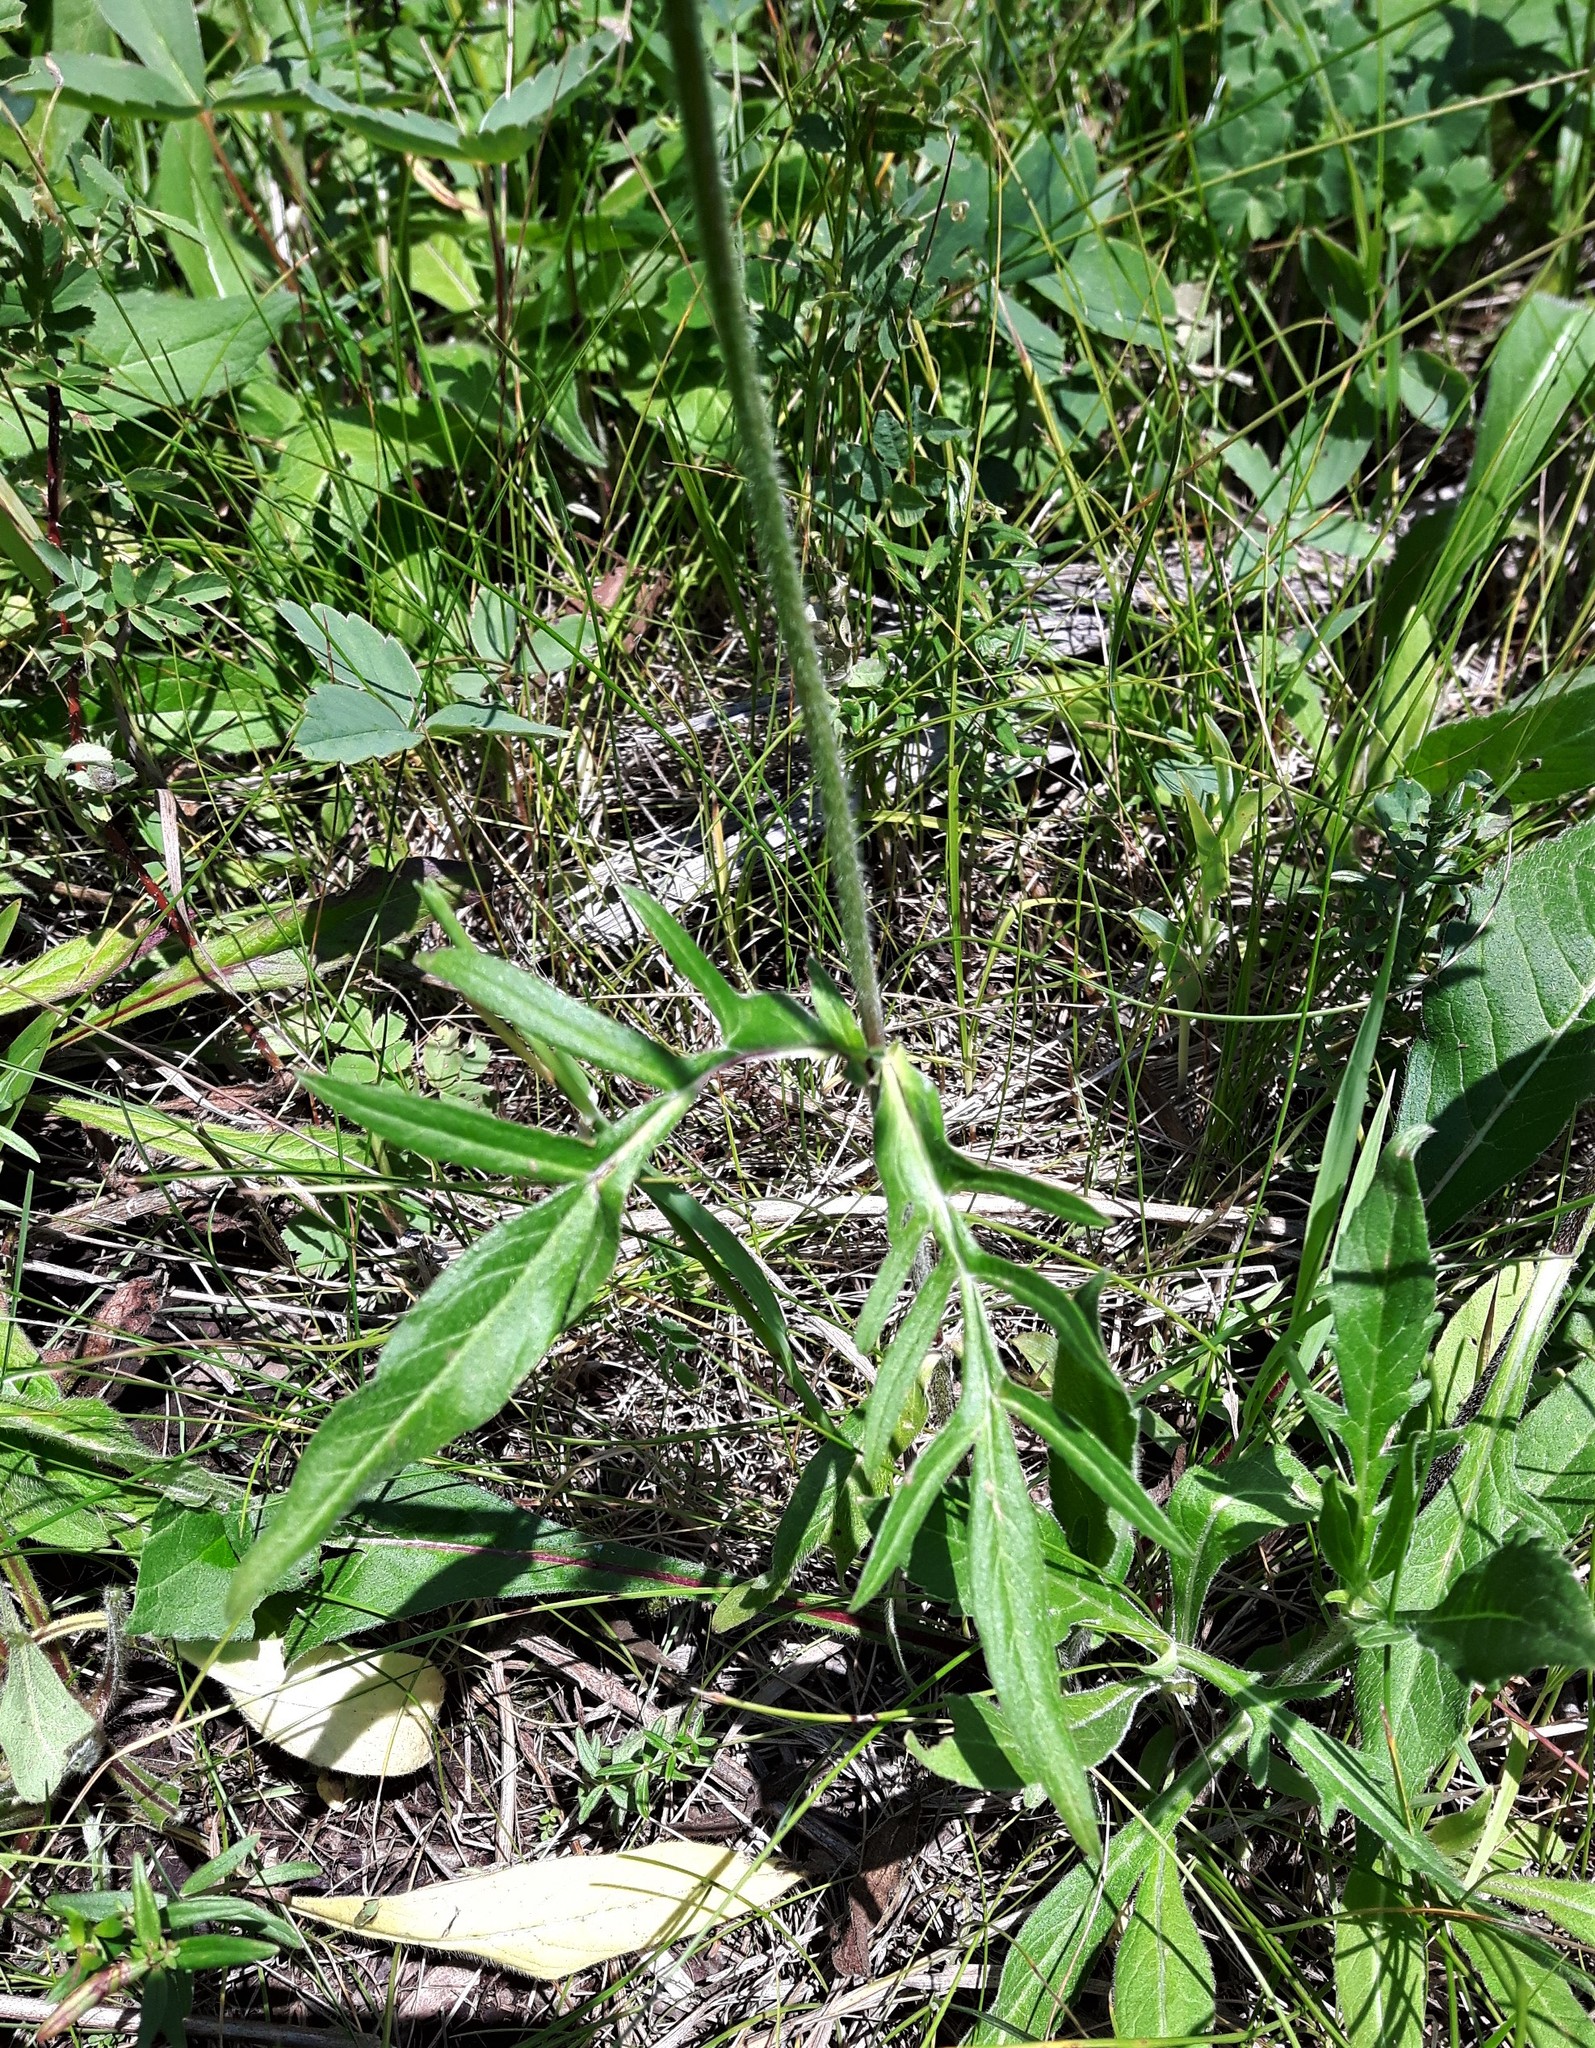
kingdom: Plantae
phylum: Tracheophyta
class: Magnoliopsida
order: Dipsacales
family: Caprifoliaceae
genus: Knautia
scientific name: Knautia arvensis
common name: Field scabiosa
